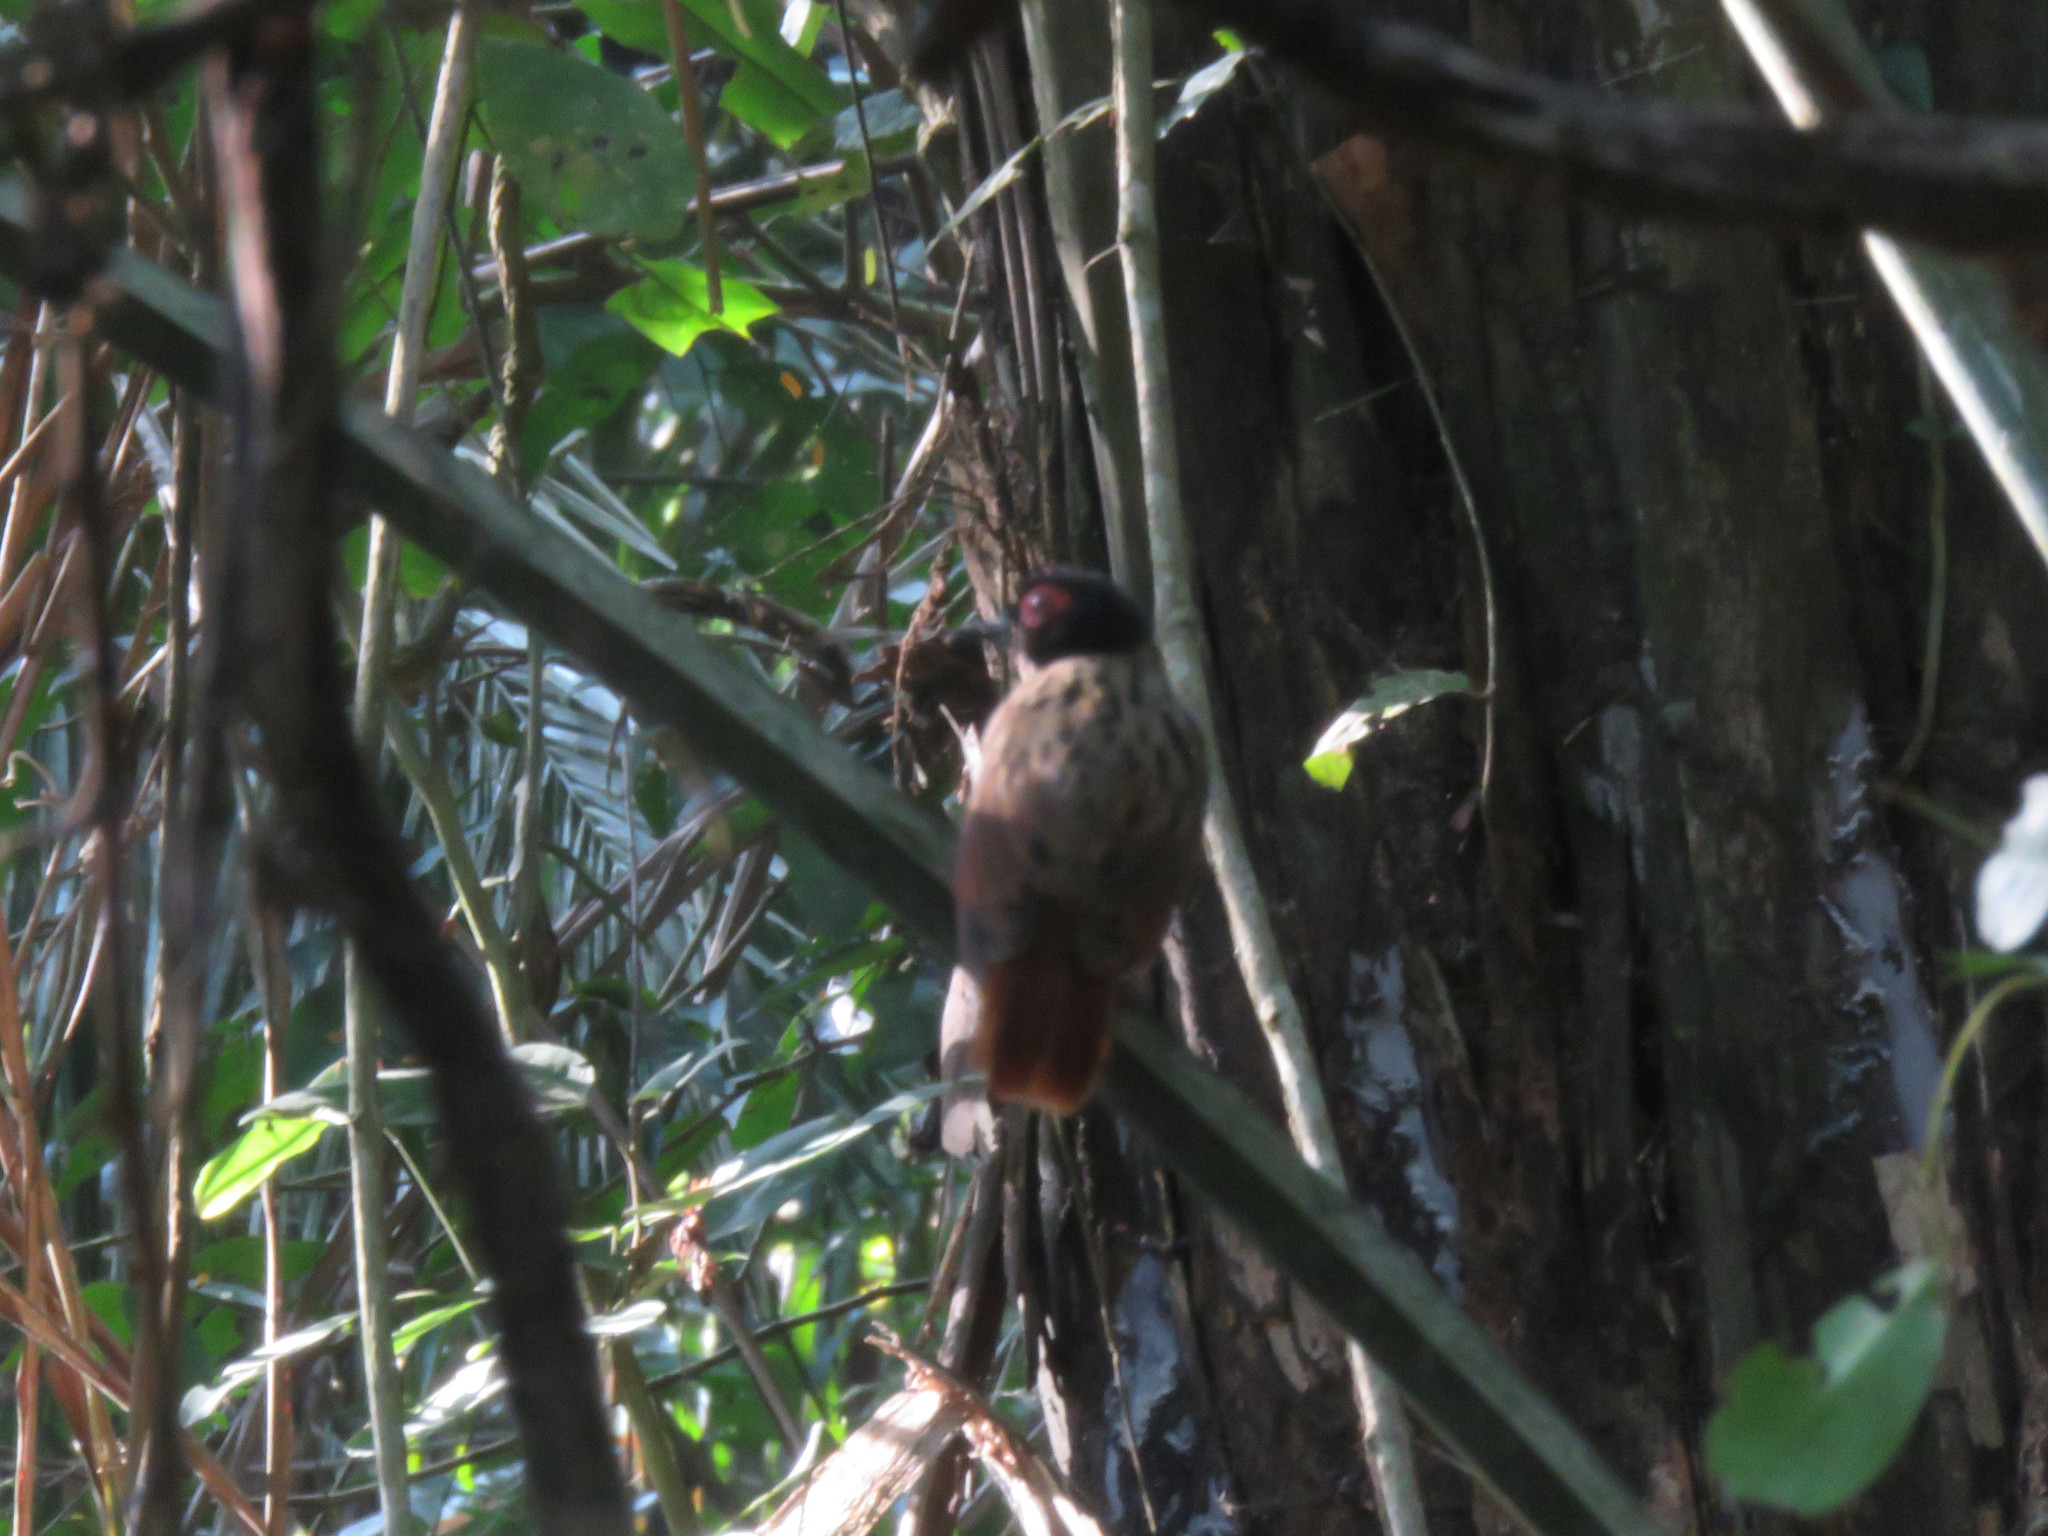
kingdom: Animalia
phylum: Chordata
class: Aves
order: Passeriformes
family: Thamnophilidae
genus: Phlegopsis
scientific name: Phlegopsis nigromaculata
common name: Black-spotted bare-eye
